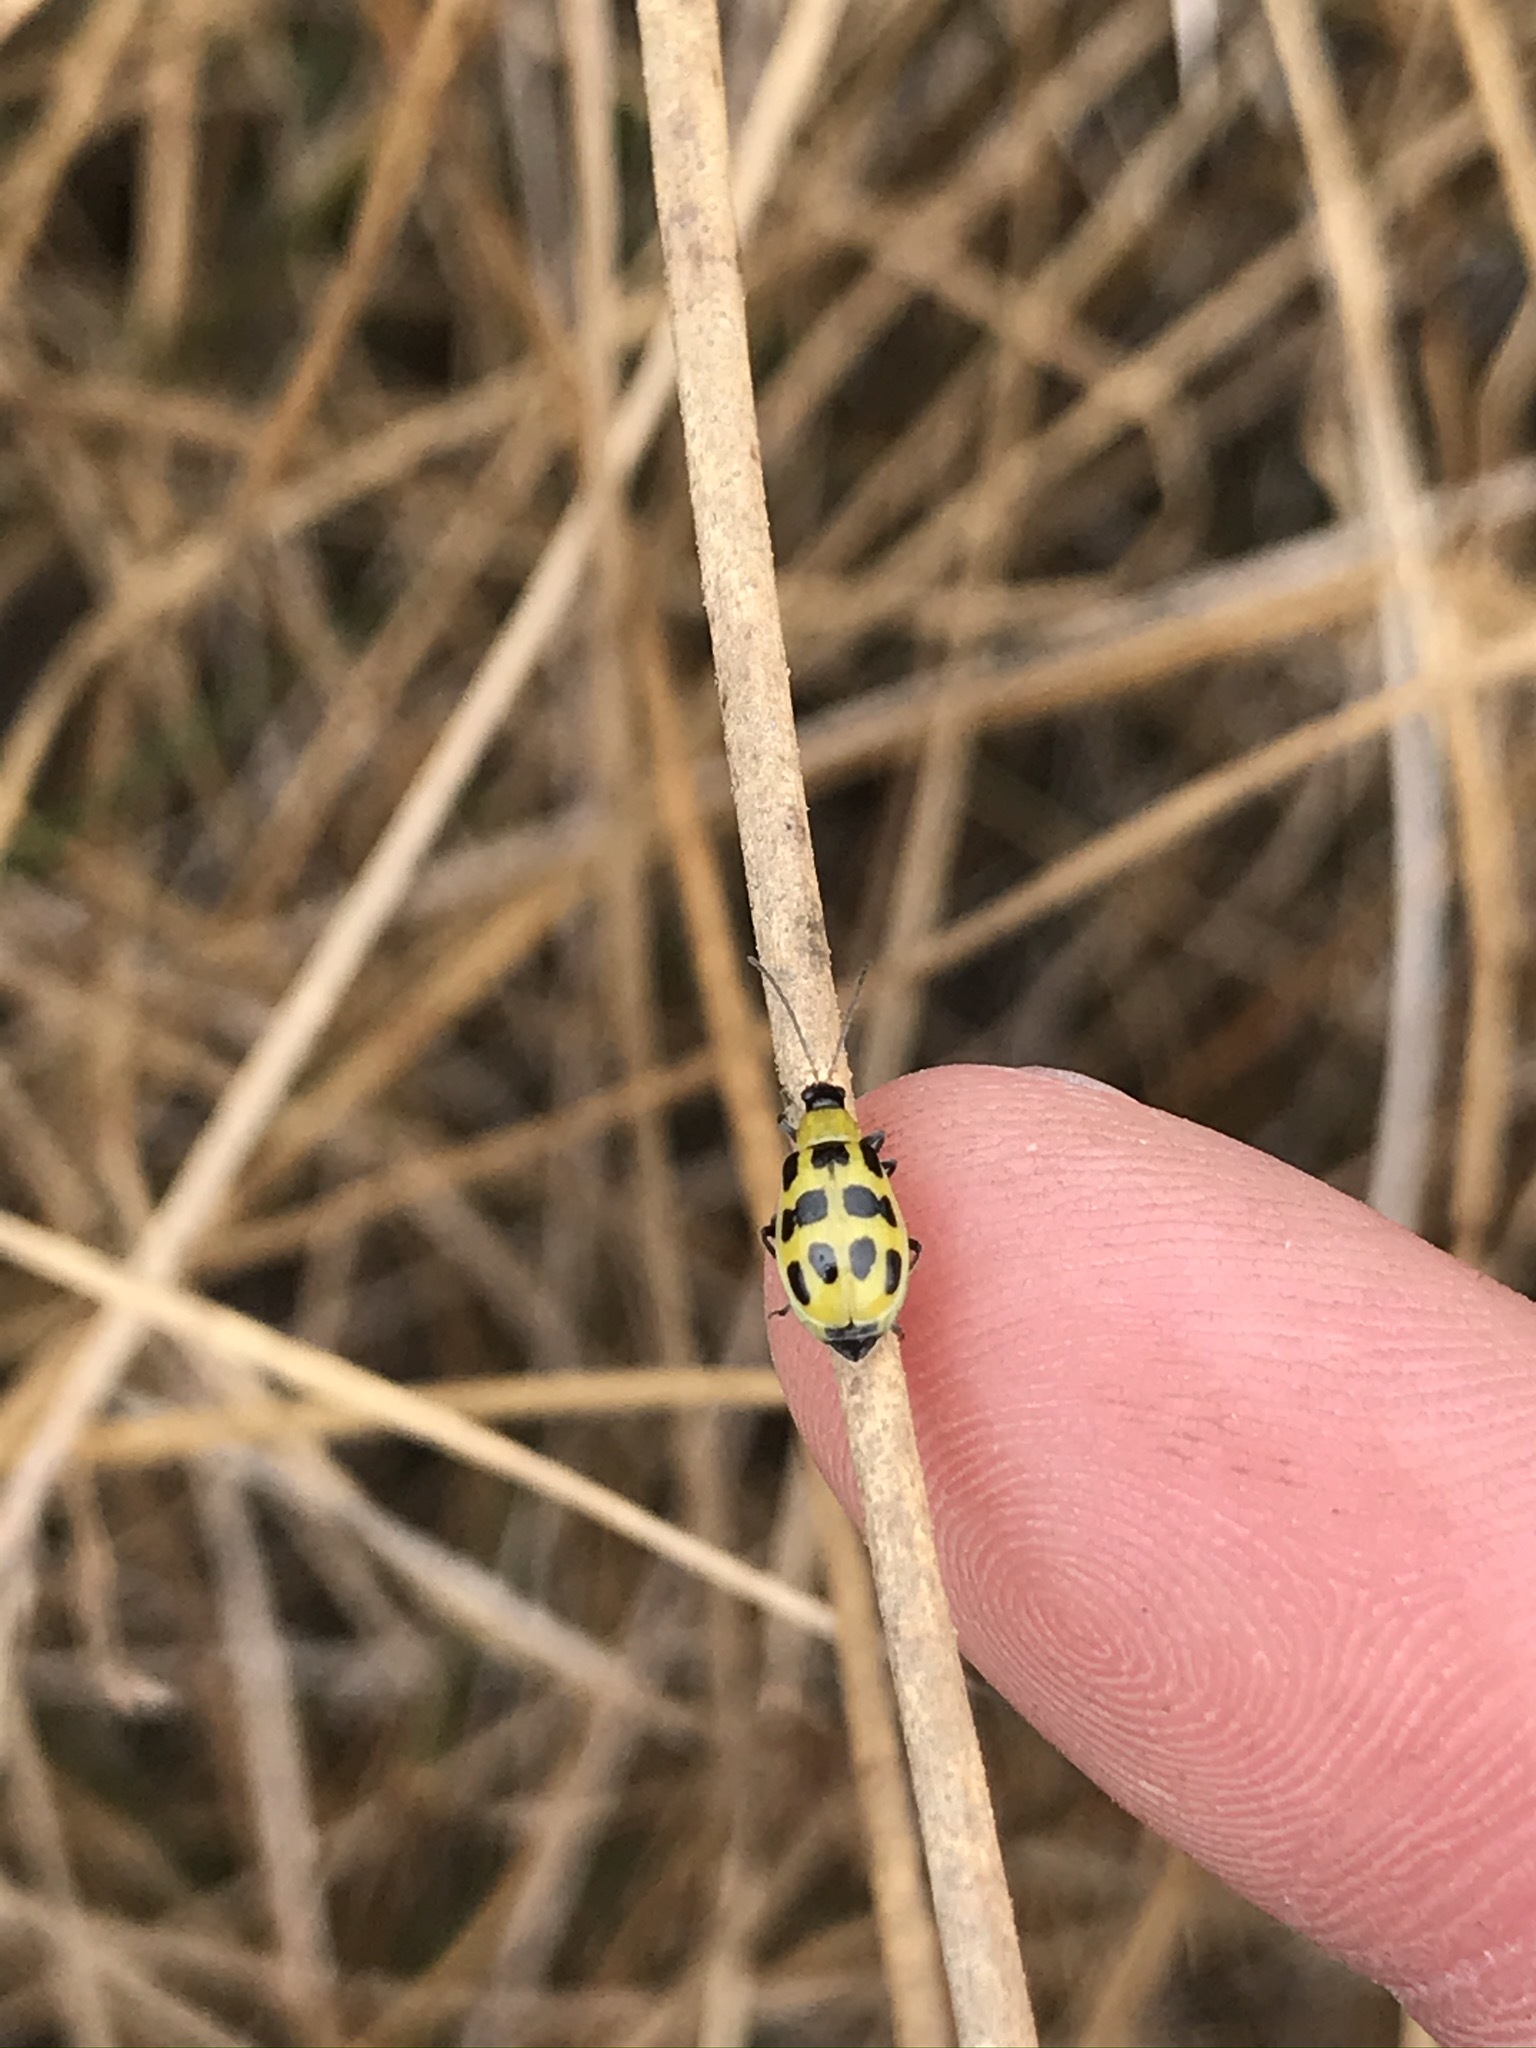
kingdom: Animalia
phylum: Arthropoda
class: Insecta
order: Coleoptera
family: Chrysomelidae
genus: Diabrotica
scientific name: Diabrotica undecimpunctata
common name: Spotted cucumber beetle
